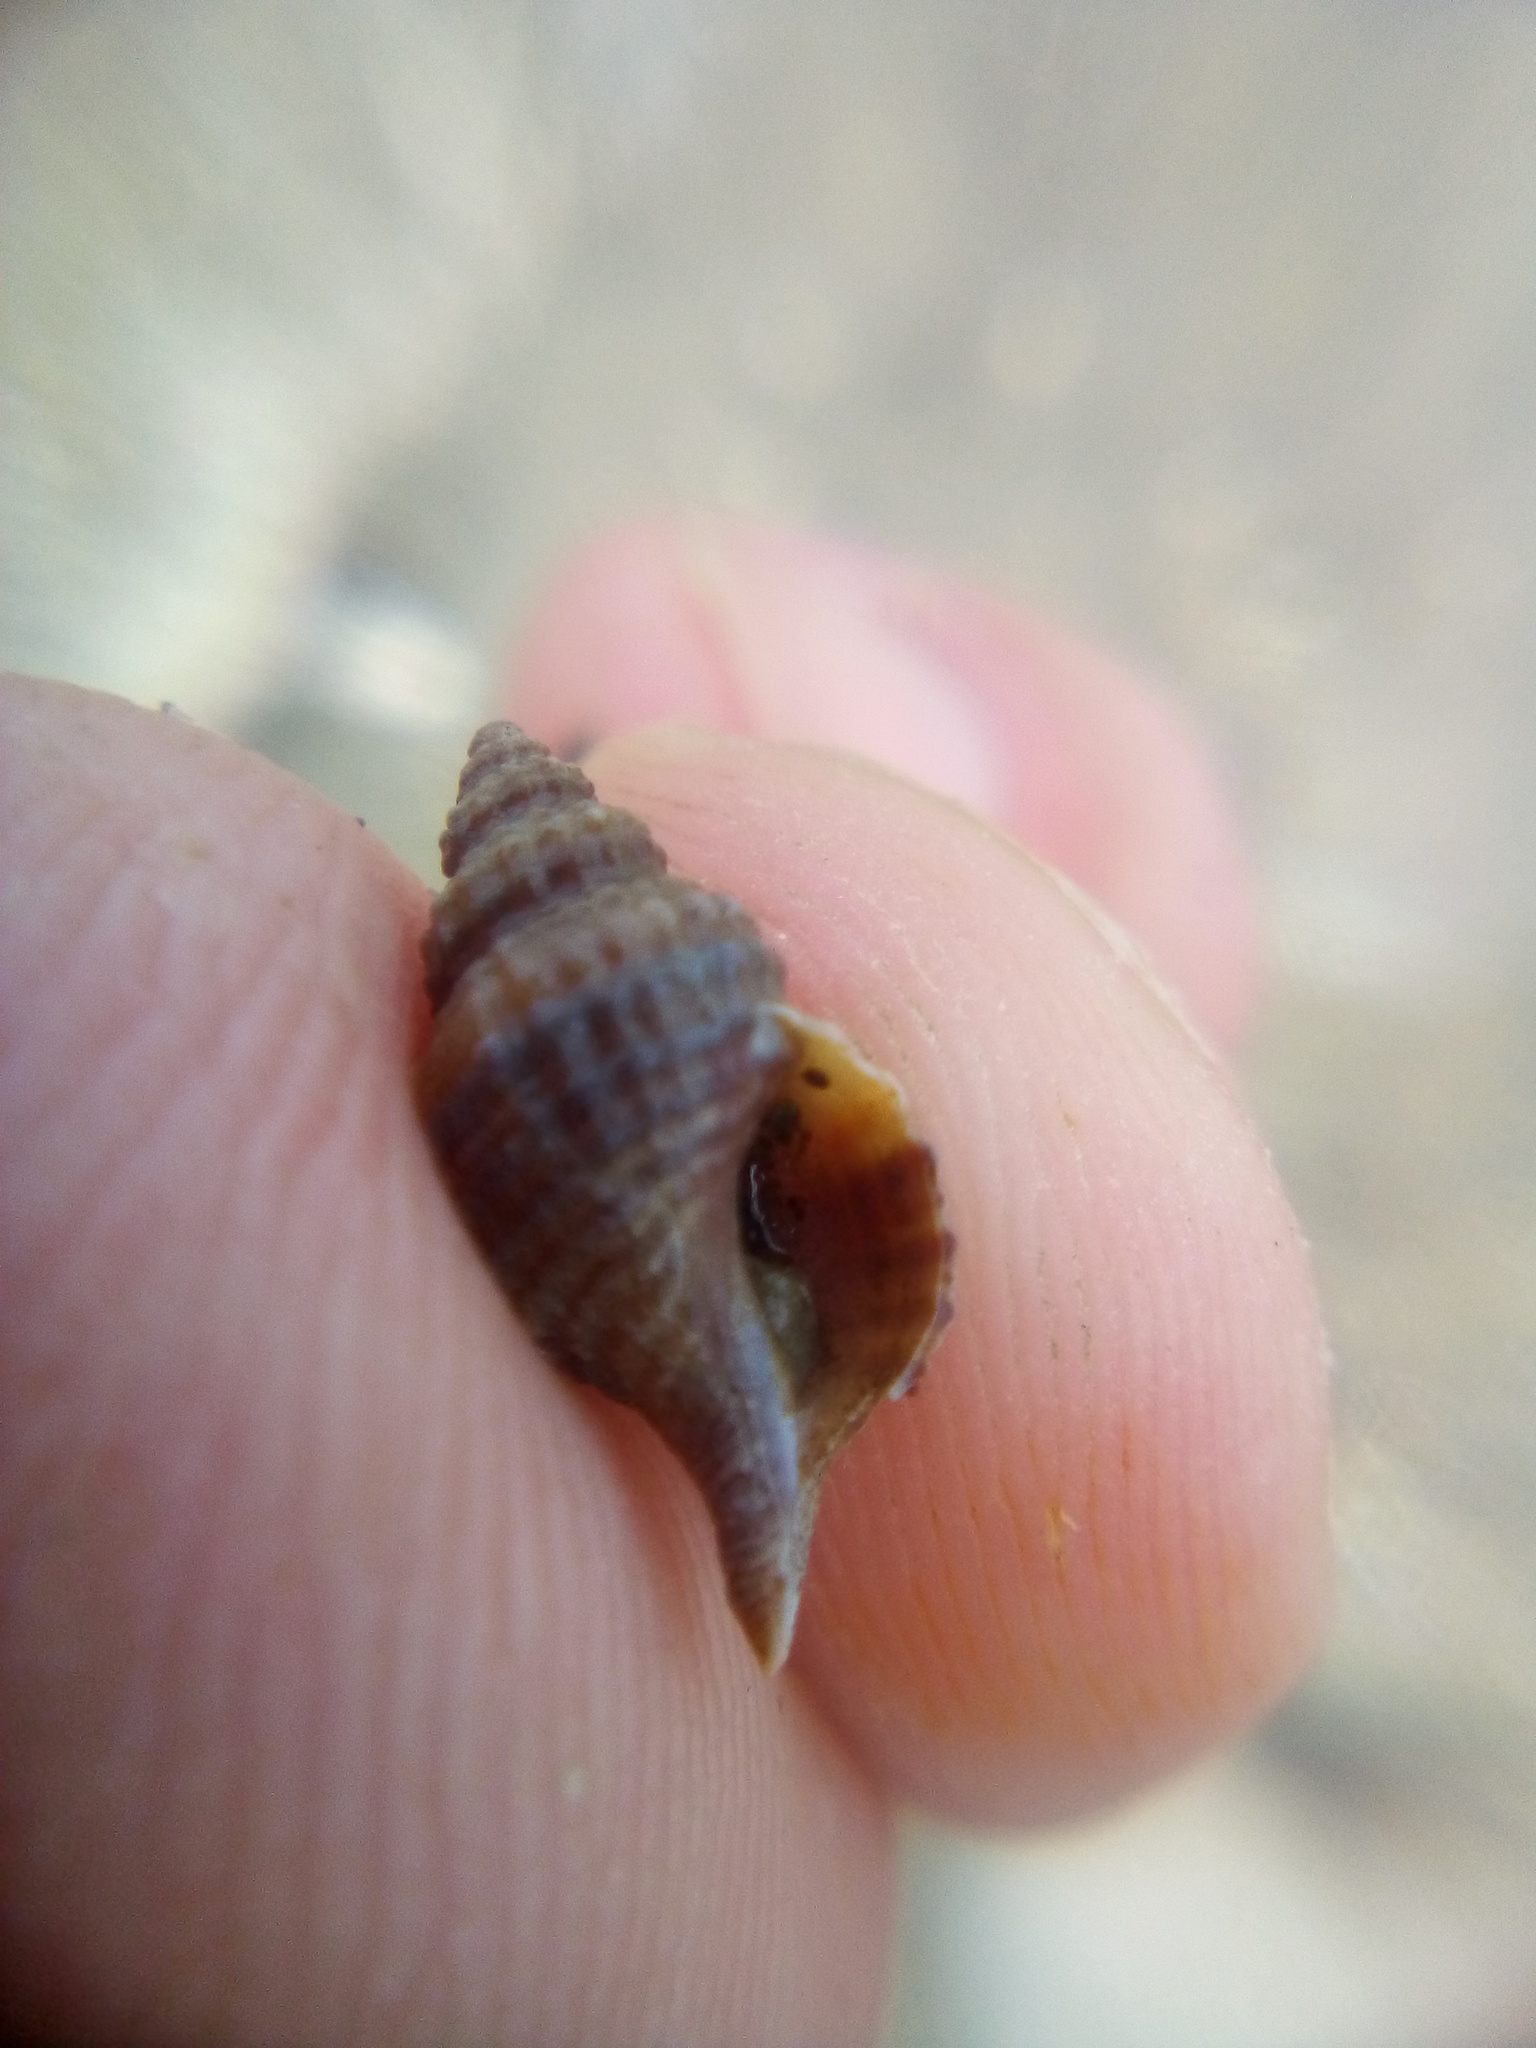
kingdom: Animalia
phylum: Mollusca
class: Gastropoda
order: Neogastropoda
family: Muricidae
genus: Xymene
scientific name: Xymene plebeius
